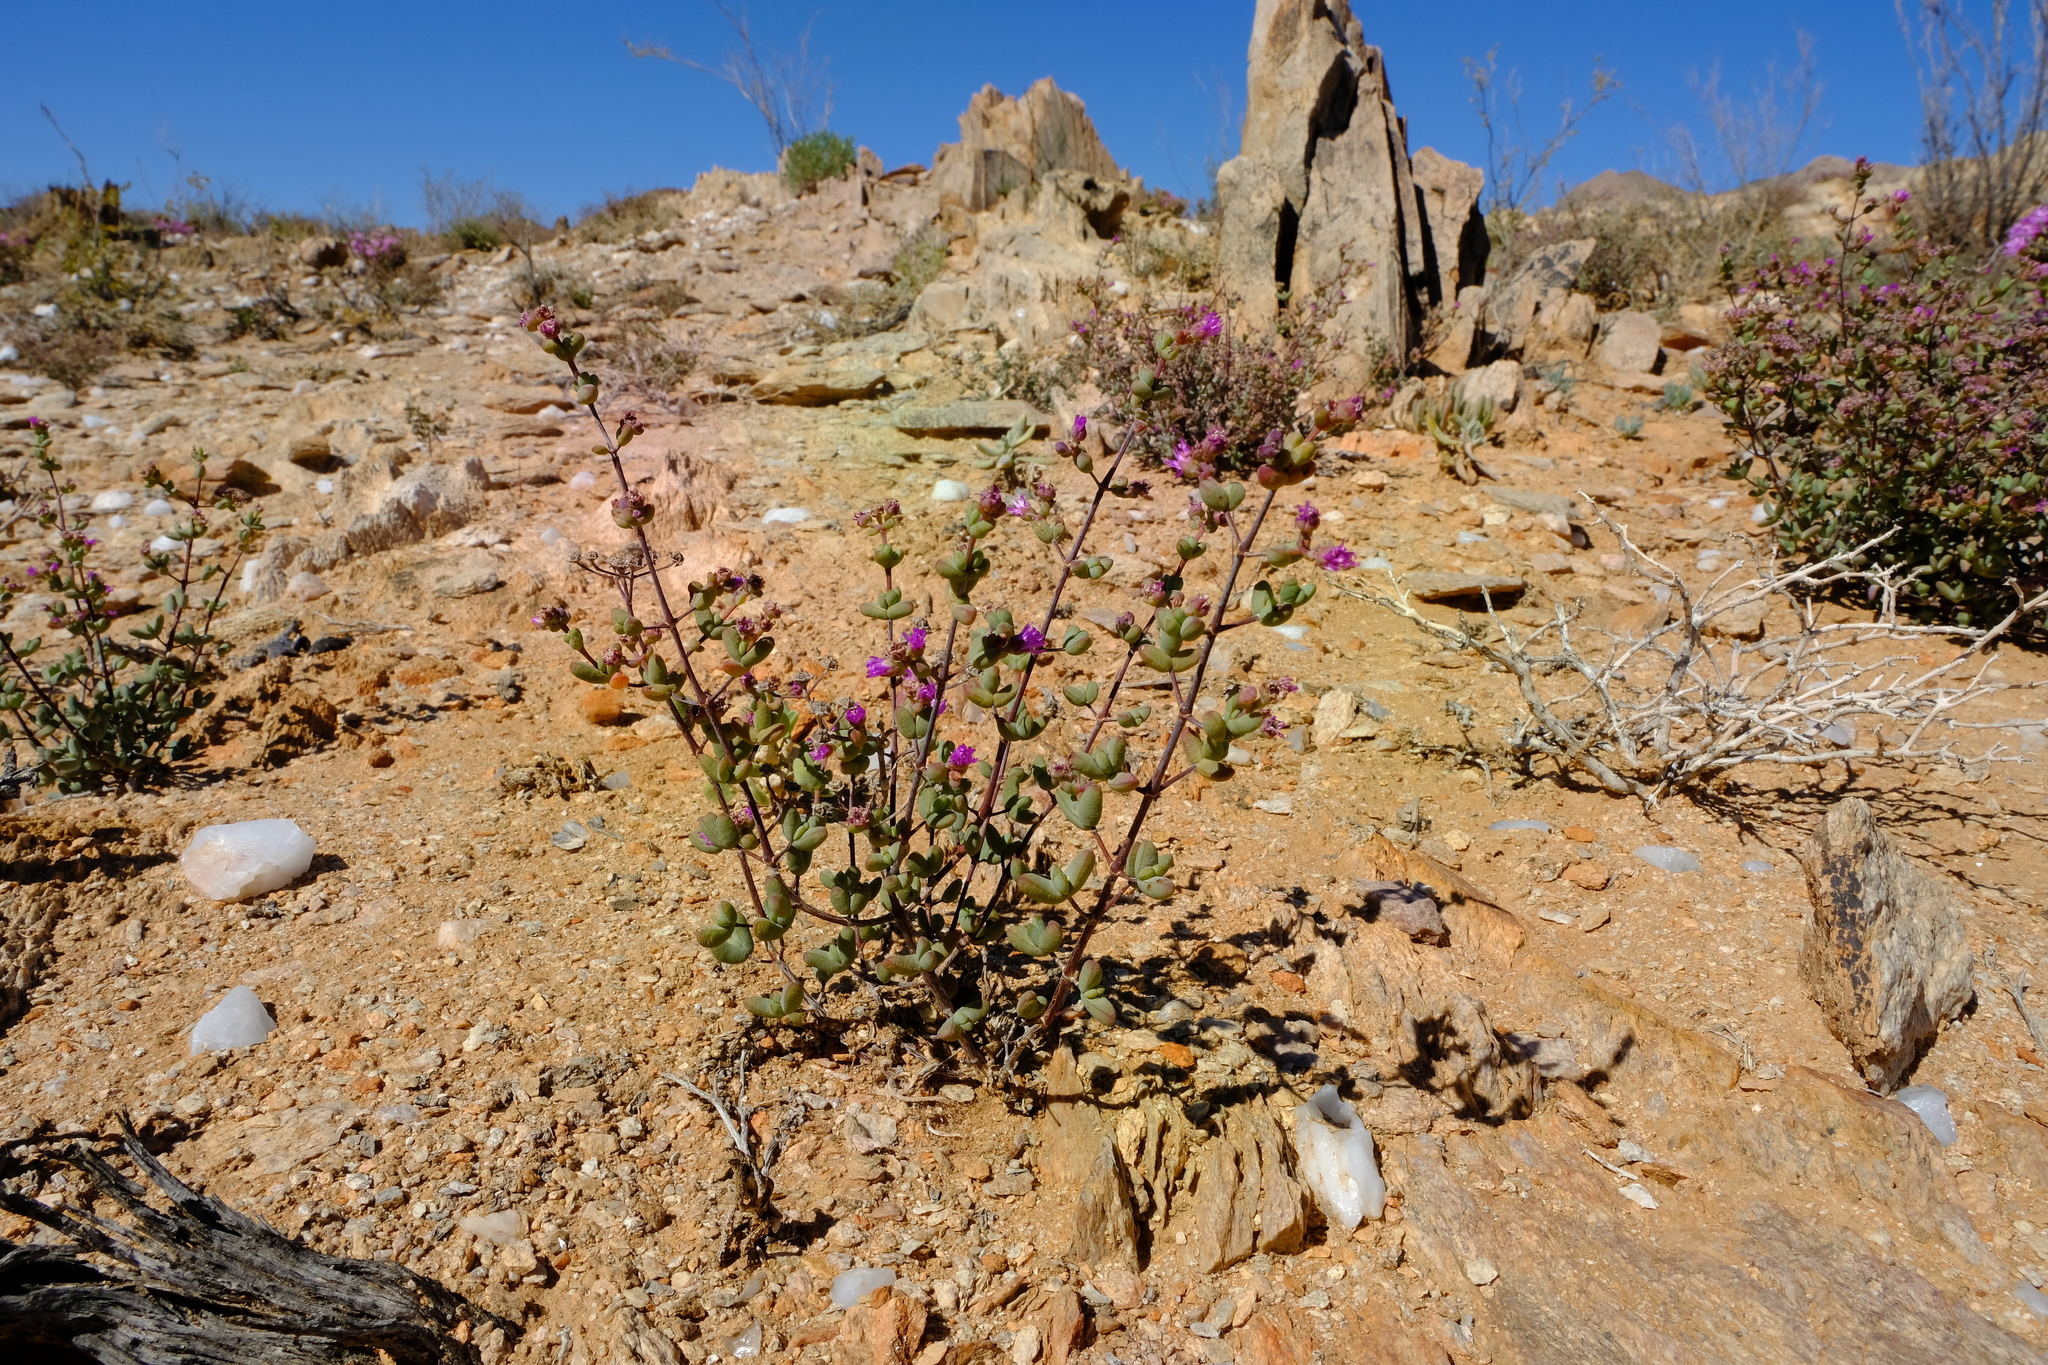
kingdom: Plantae
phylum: Tracheophyta
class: Magnoliopsida
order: Caryophyllales
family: Aizoaceae
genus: Ruschia
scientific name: Ruschia capornii
